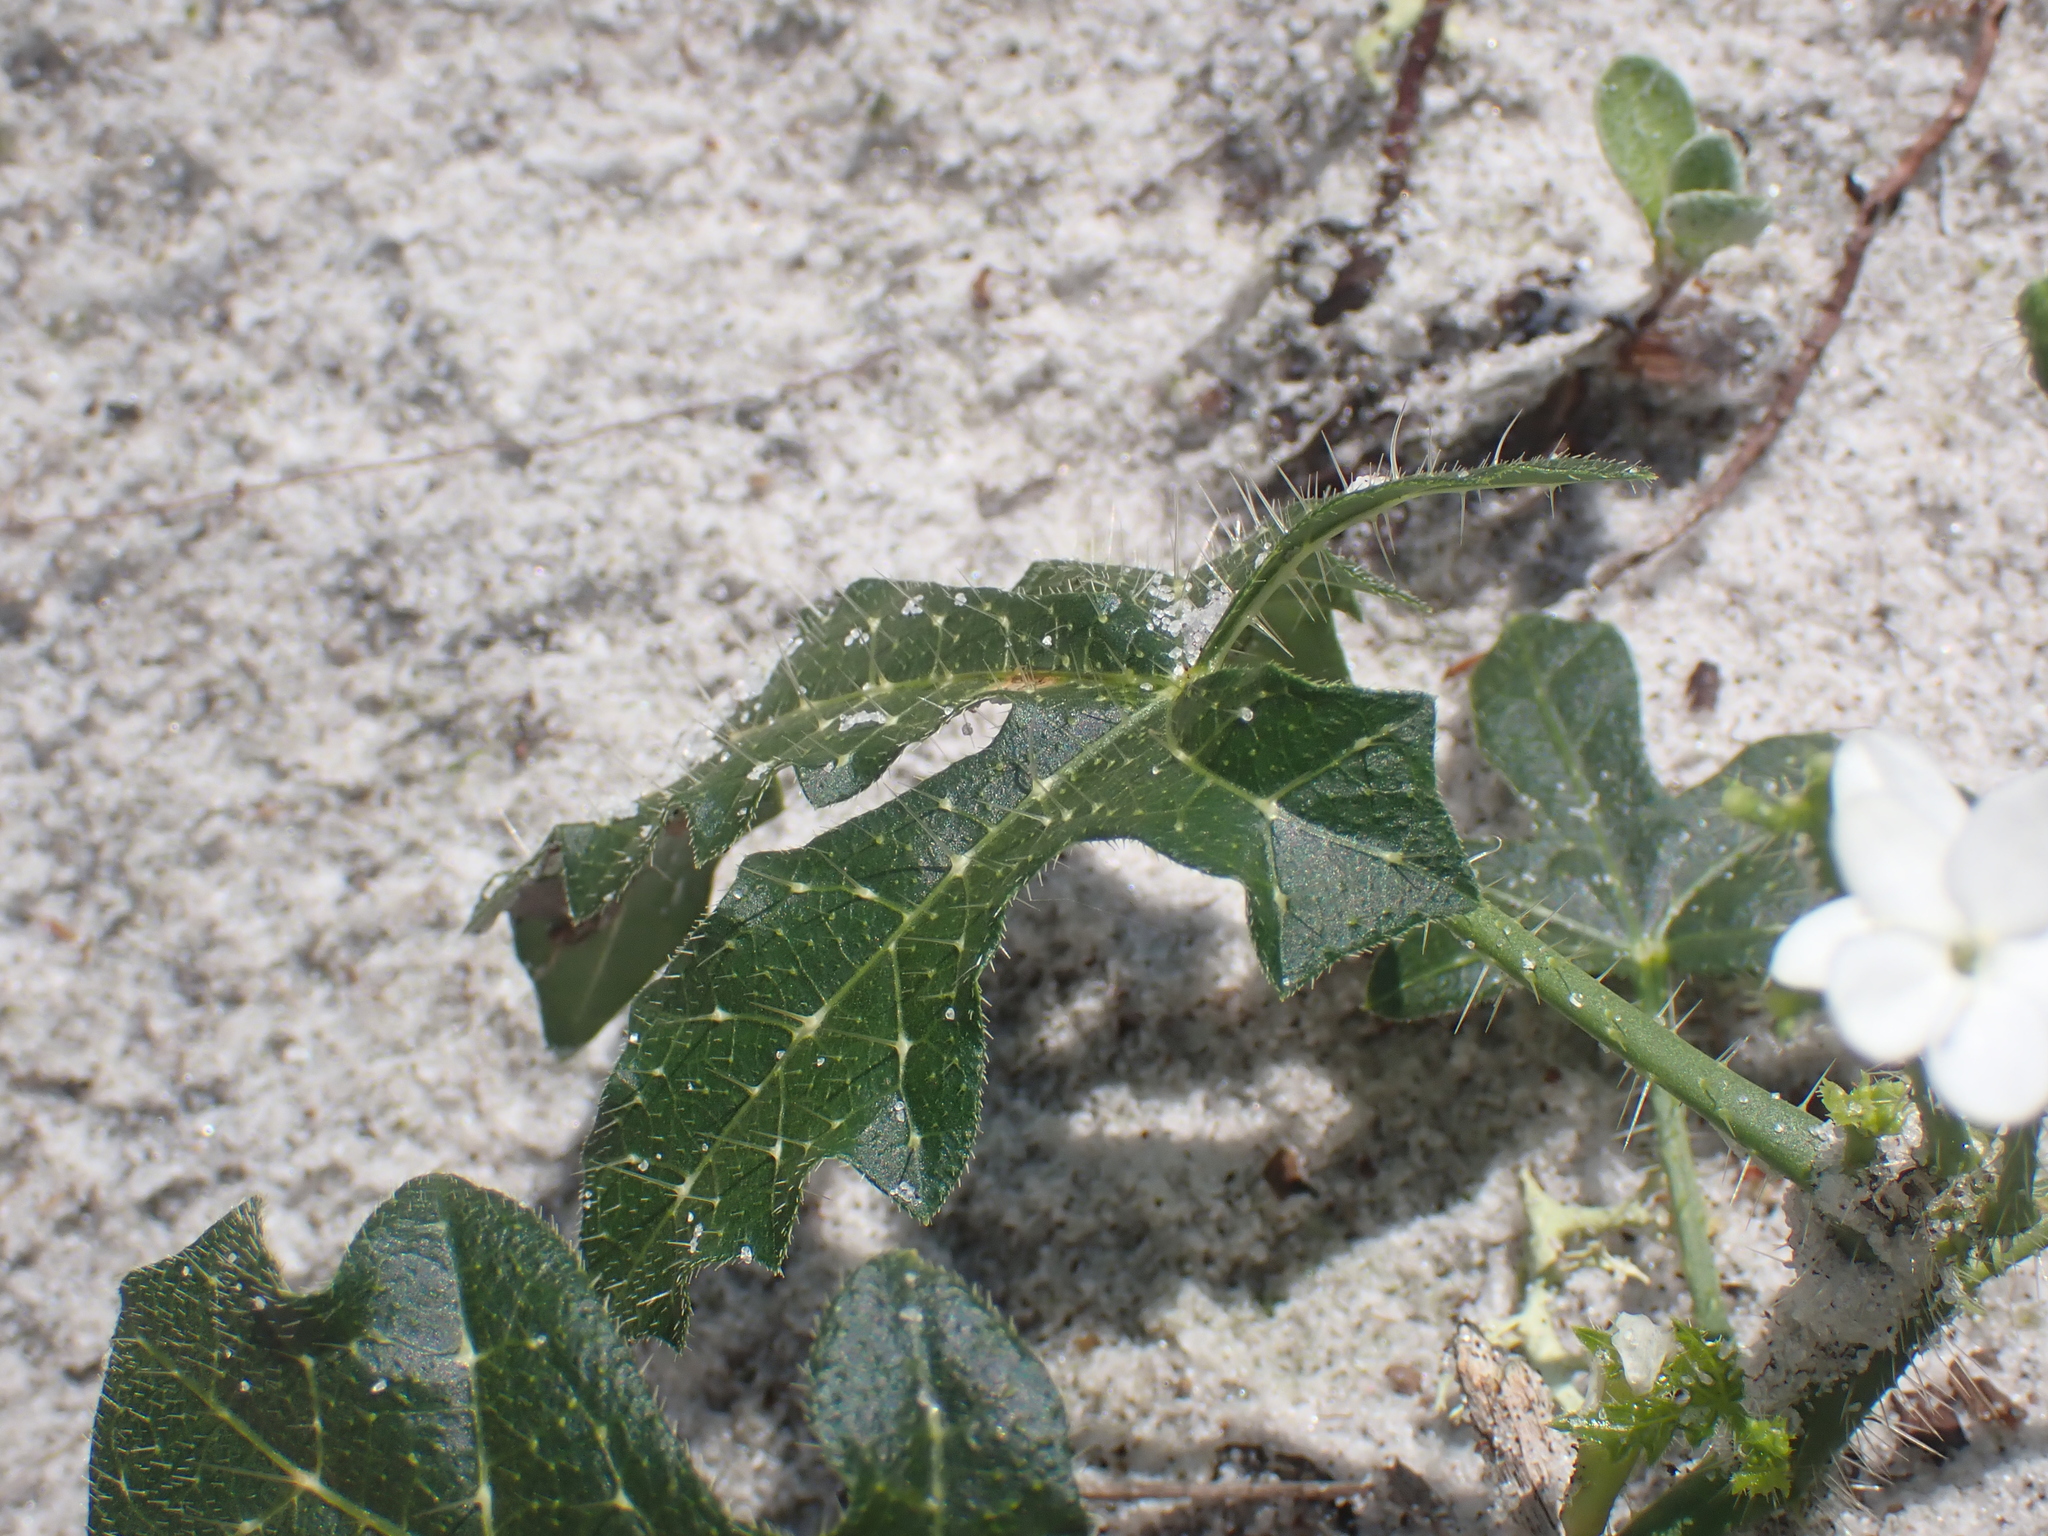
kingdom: Plantae
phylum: Tracheophyta
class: Magnoliopsida
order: Malpighiales
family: Euphorbiaceae
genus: Cnidoscolus
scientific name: Cnidoscolus stimulosus
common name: Bull-nettle
